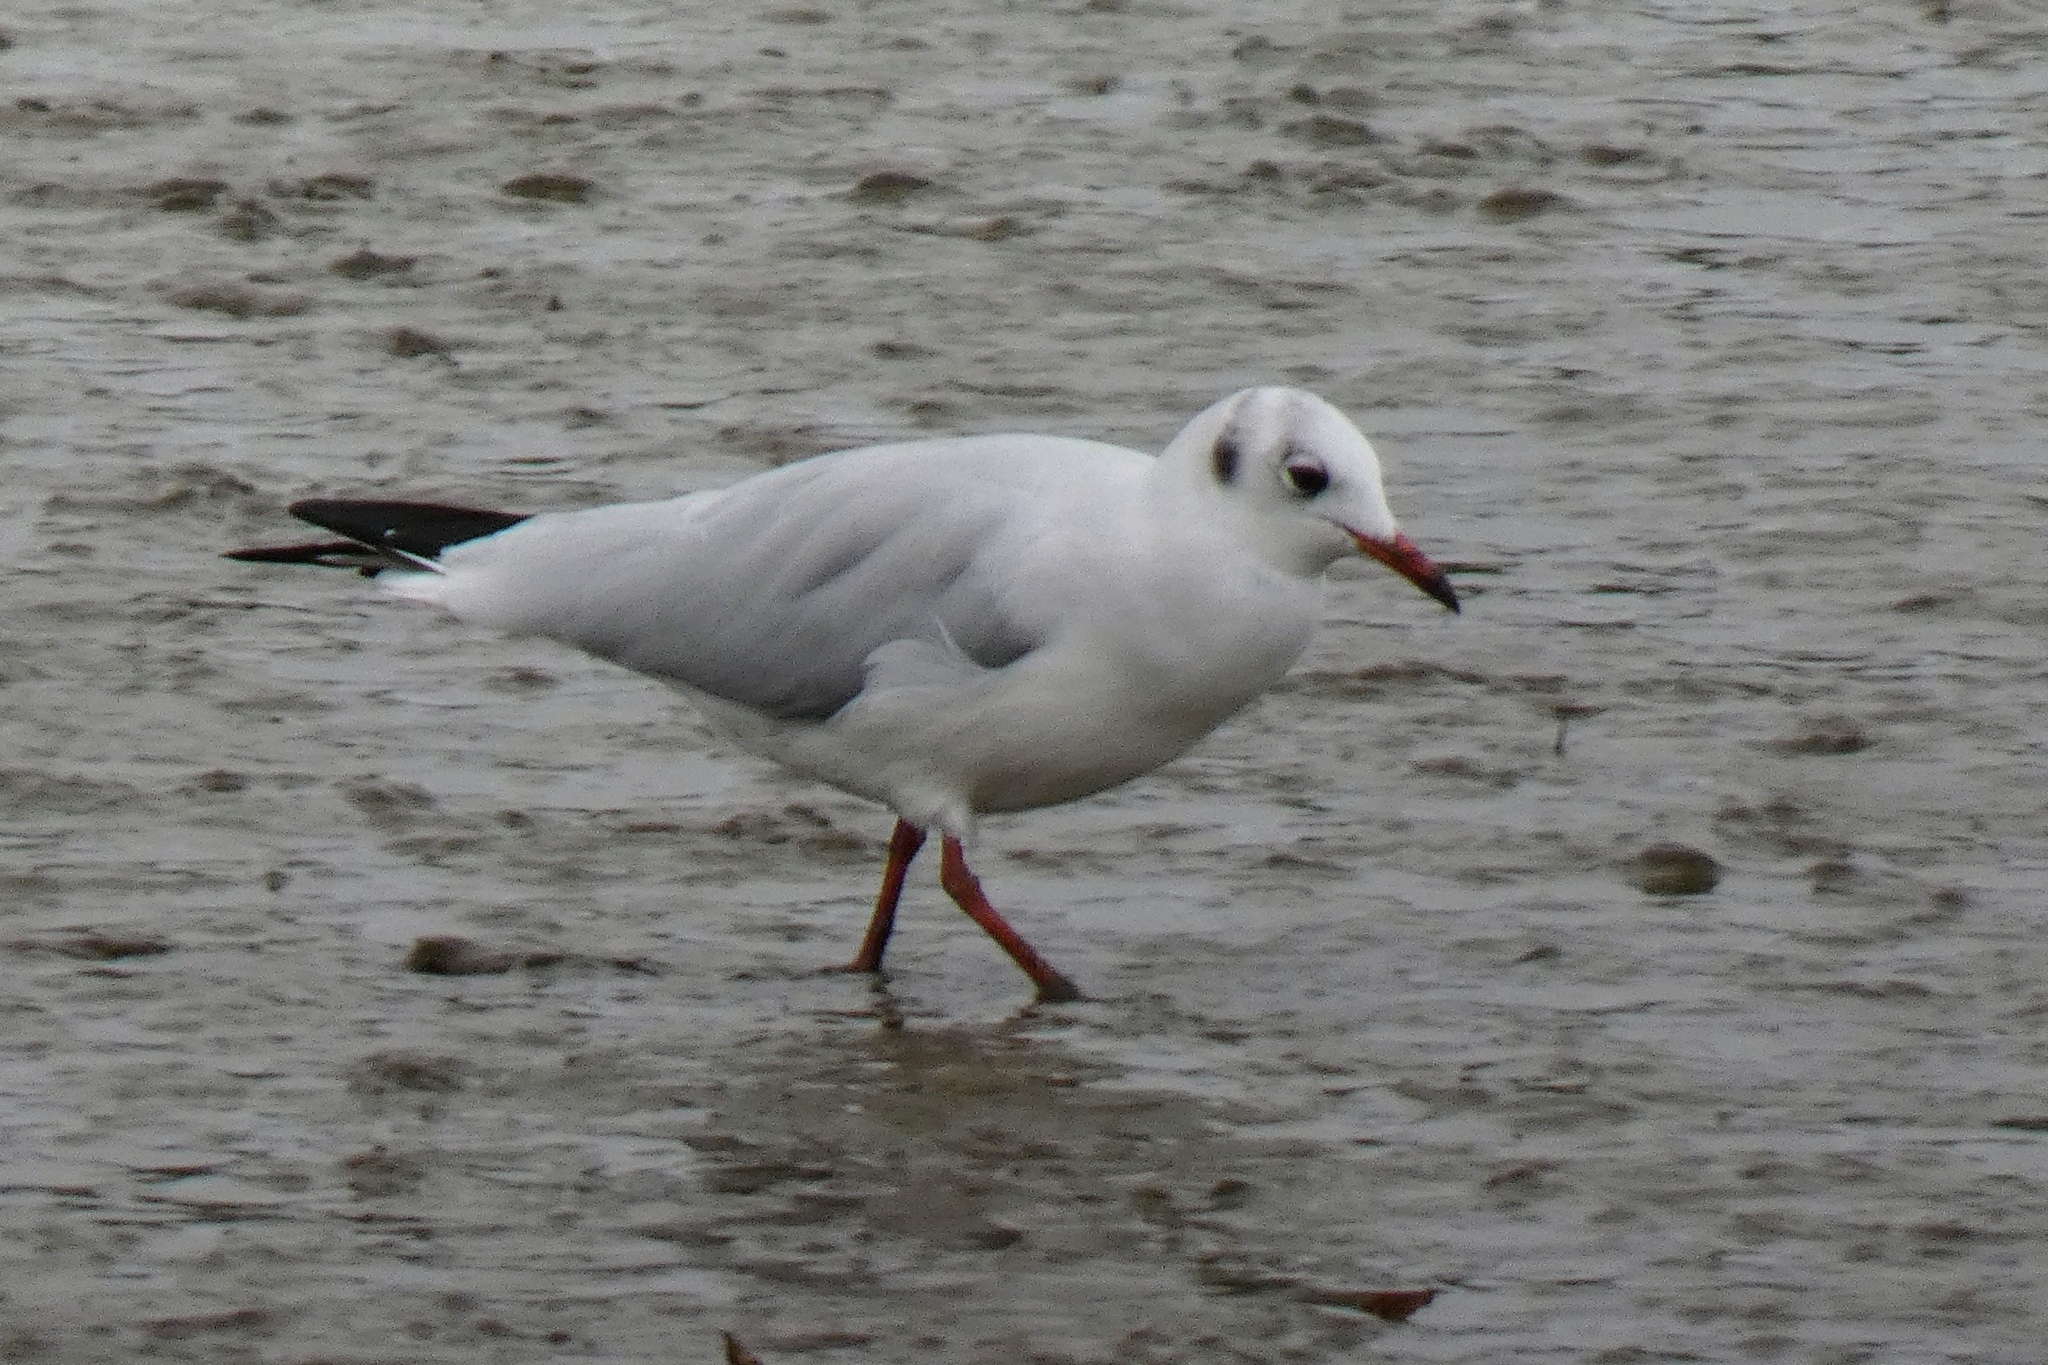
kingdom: Animalia
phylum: Chordata
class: Aves
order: Charadriiformes
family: Laridae
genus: Chroicocephalus
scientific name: Chroicocephalus ridibundus
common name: Black-headed gull
